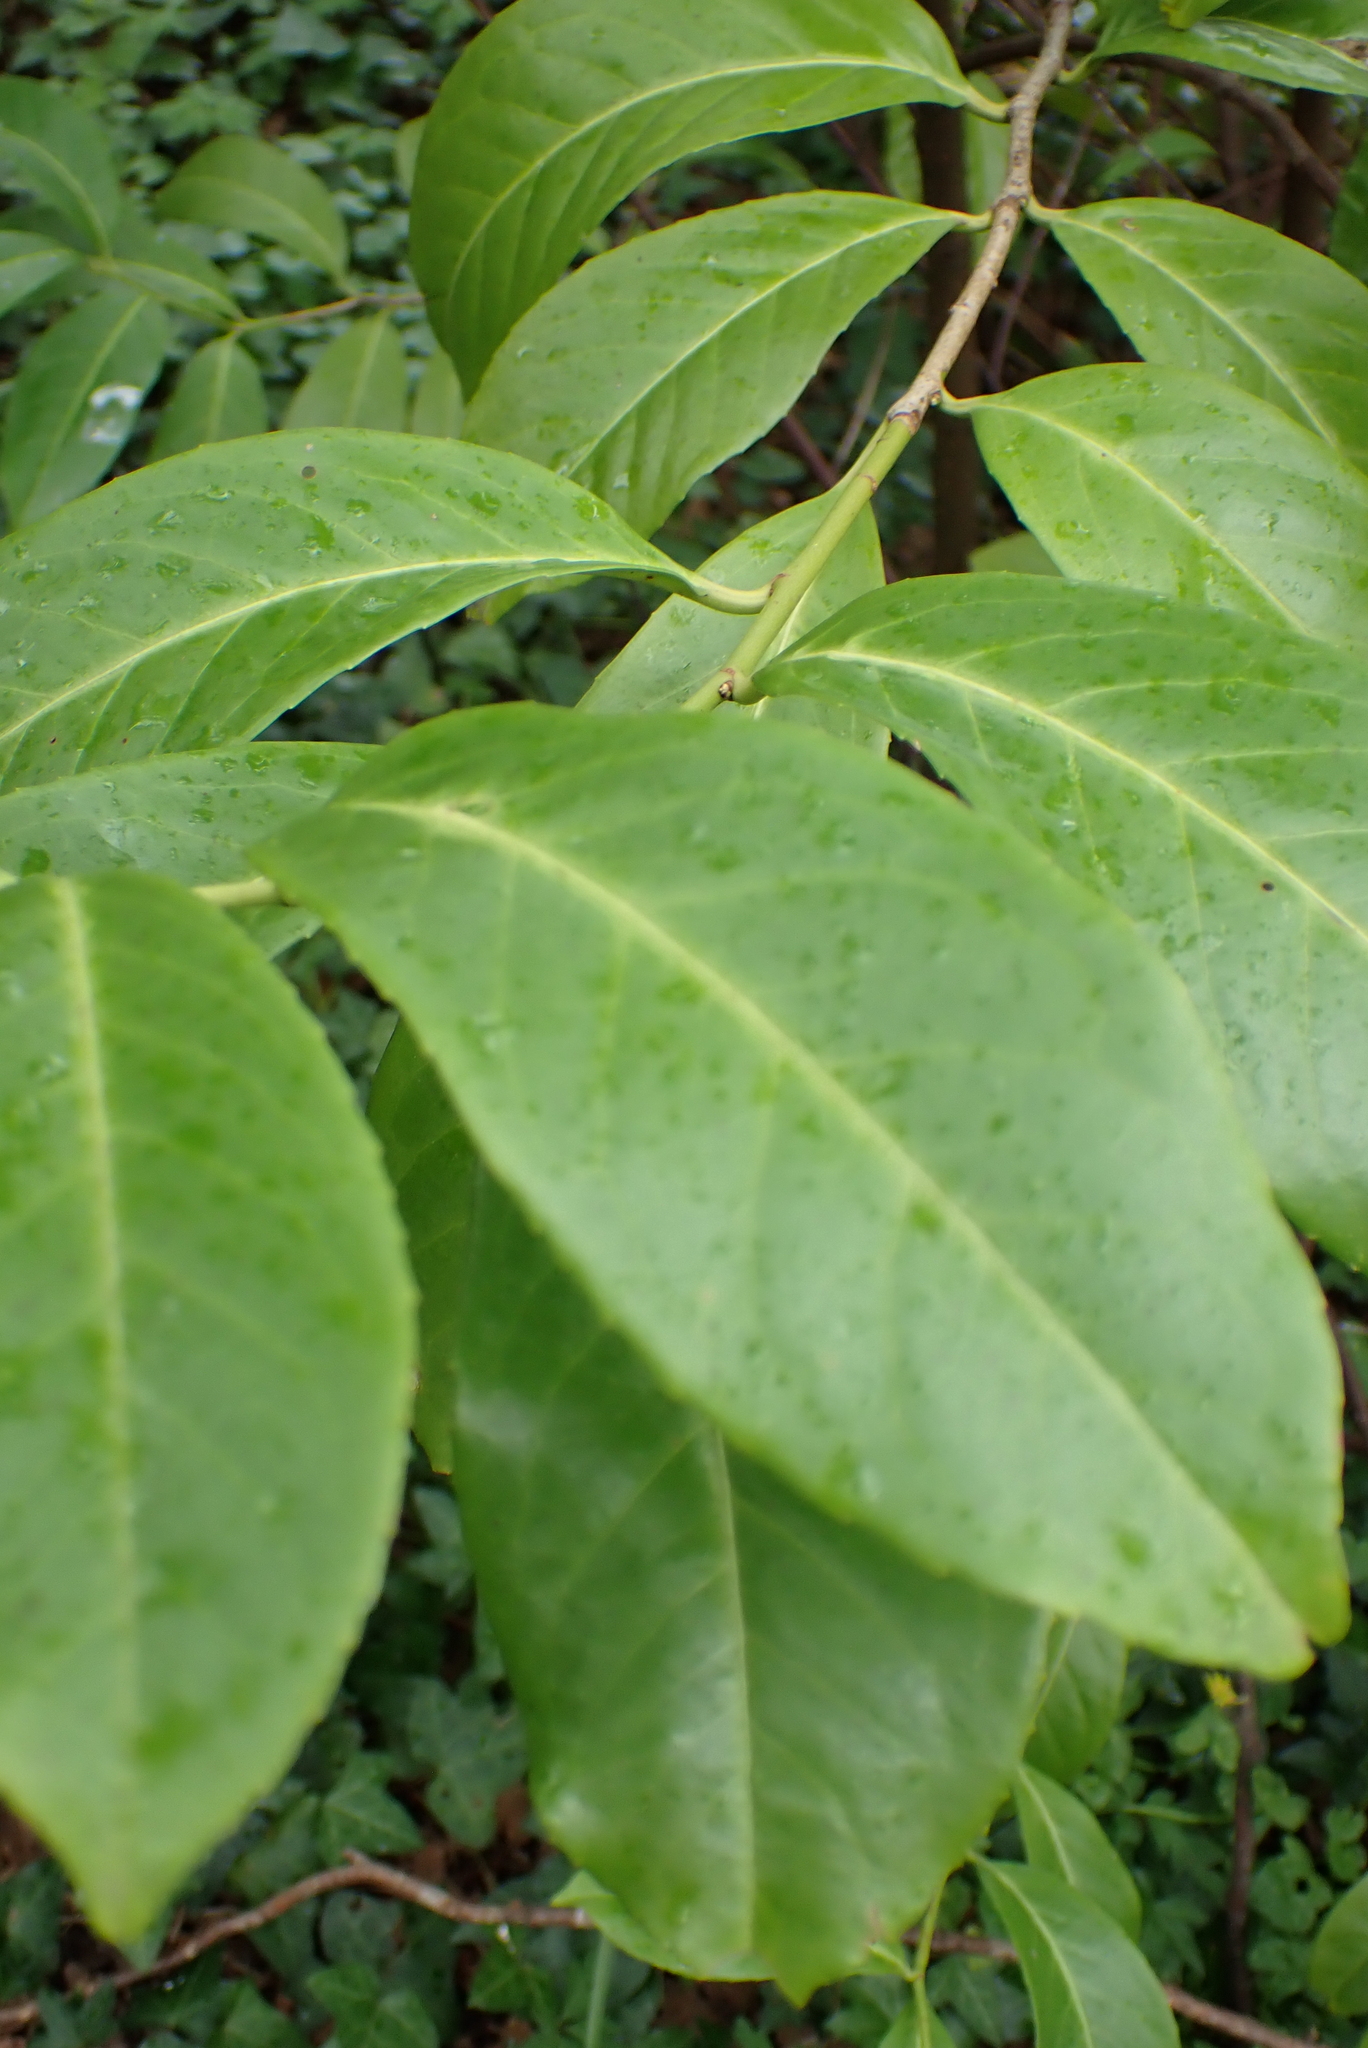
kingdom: Plantae
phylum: Tracheophyta
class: Magnoliopsida
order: Rosales
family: Rosaceae
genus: Prunus
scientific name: Prunus laurocerasus
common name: Cherry laurel
